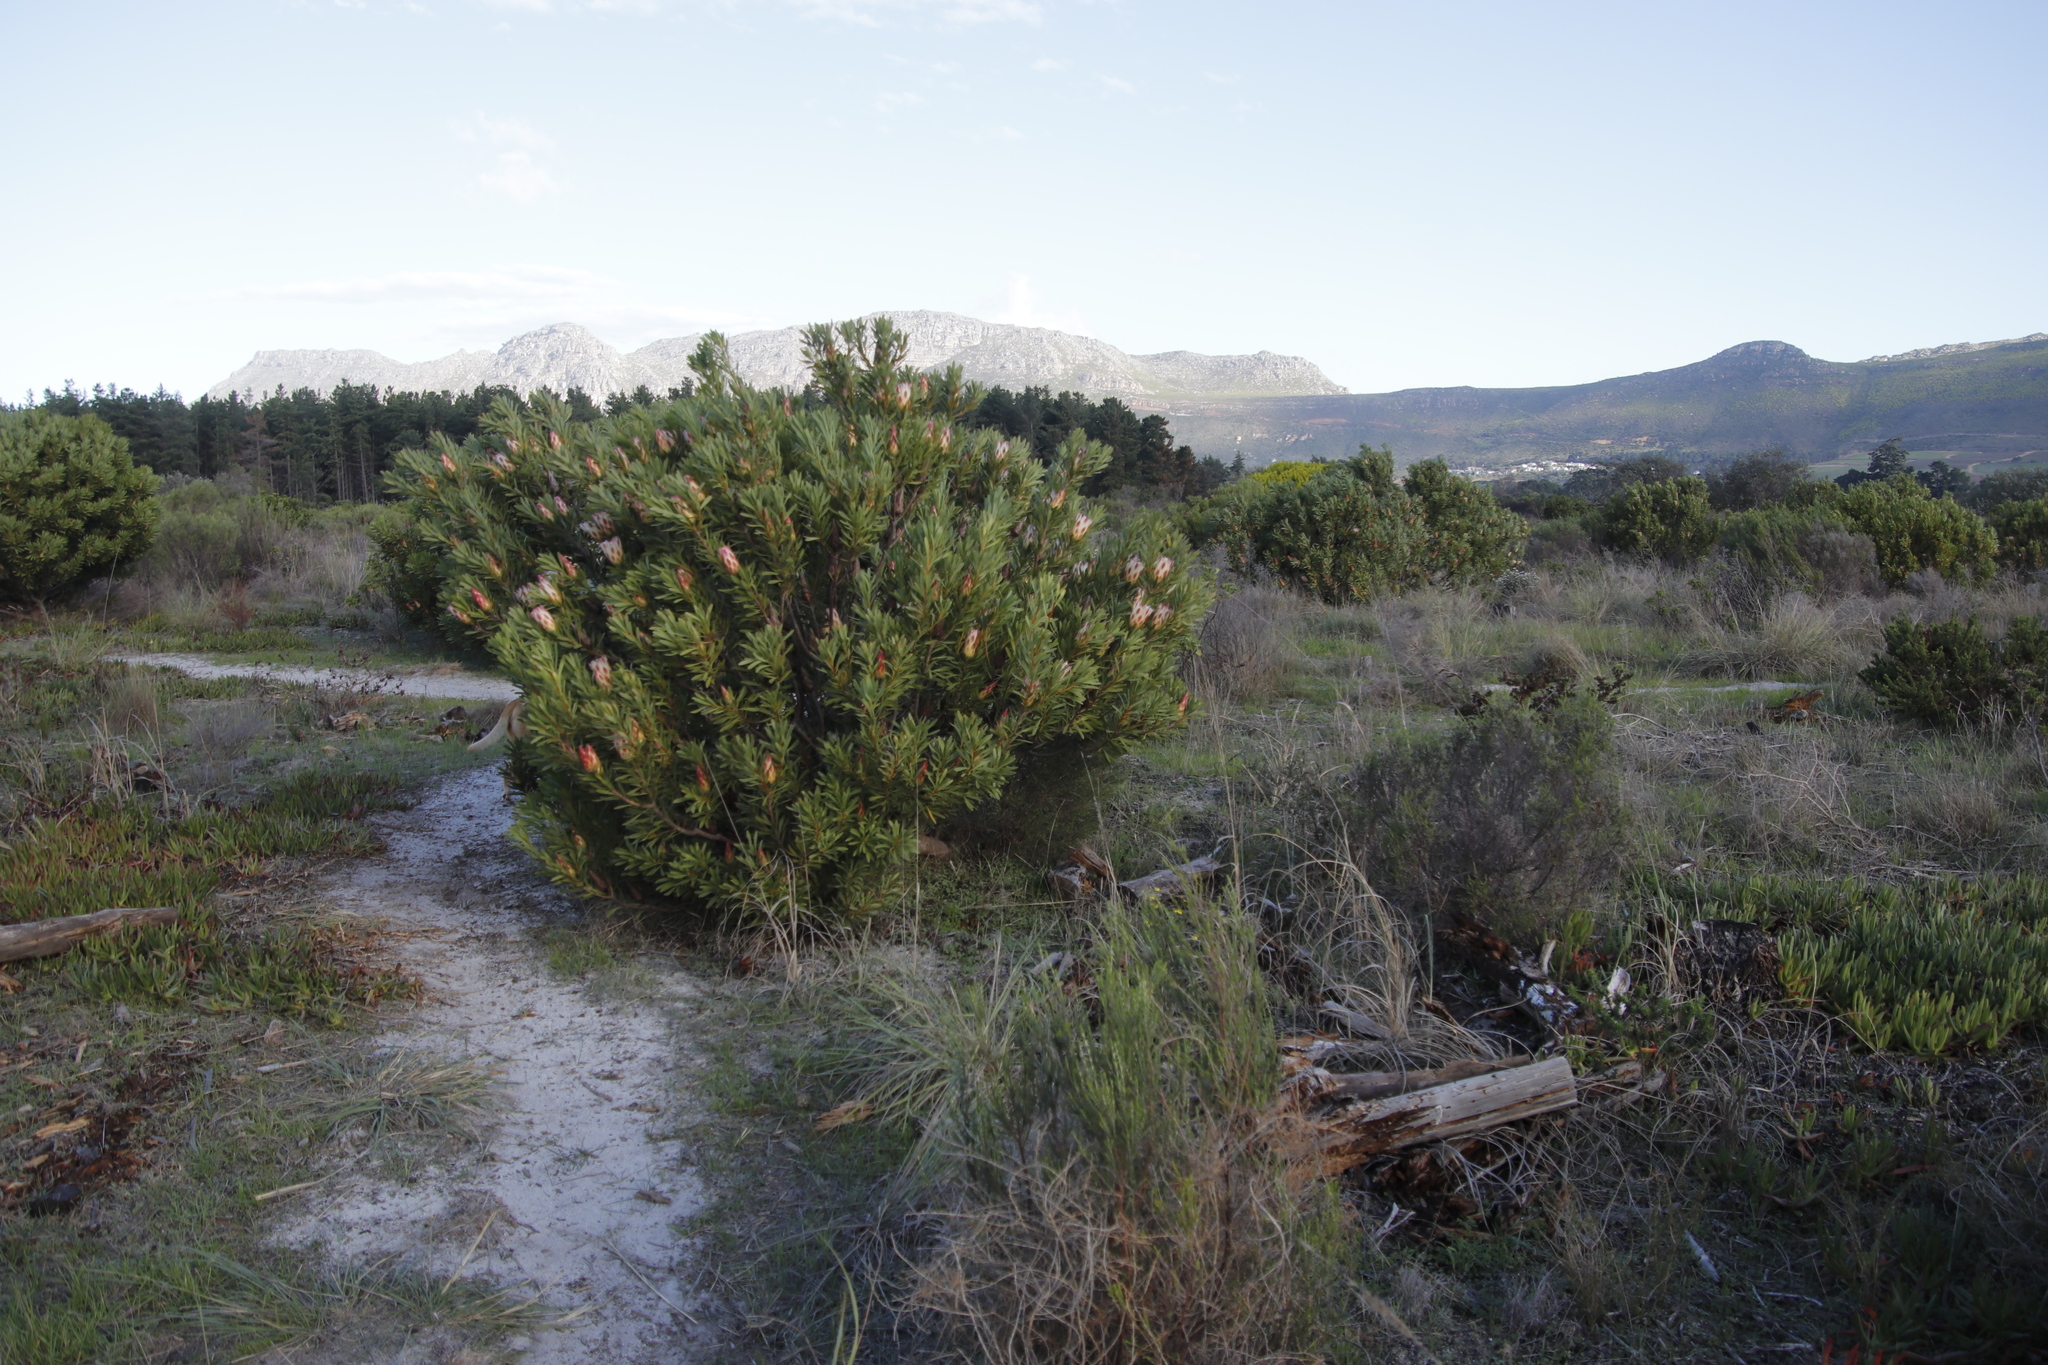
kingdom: Plantae
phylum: Tracheophyta
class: Magnoliopsida
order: Proteales
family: Proteaceae
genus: Protea
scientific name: Protea repens
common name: Sugarbush
